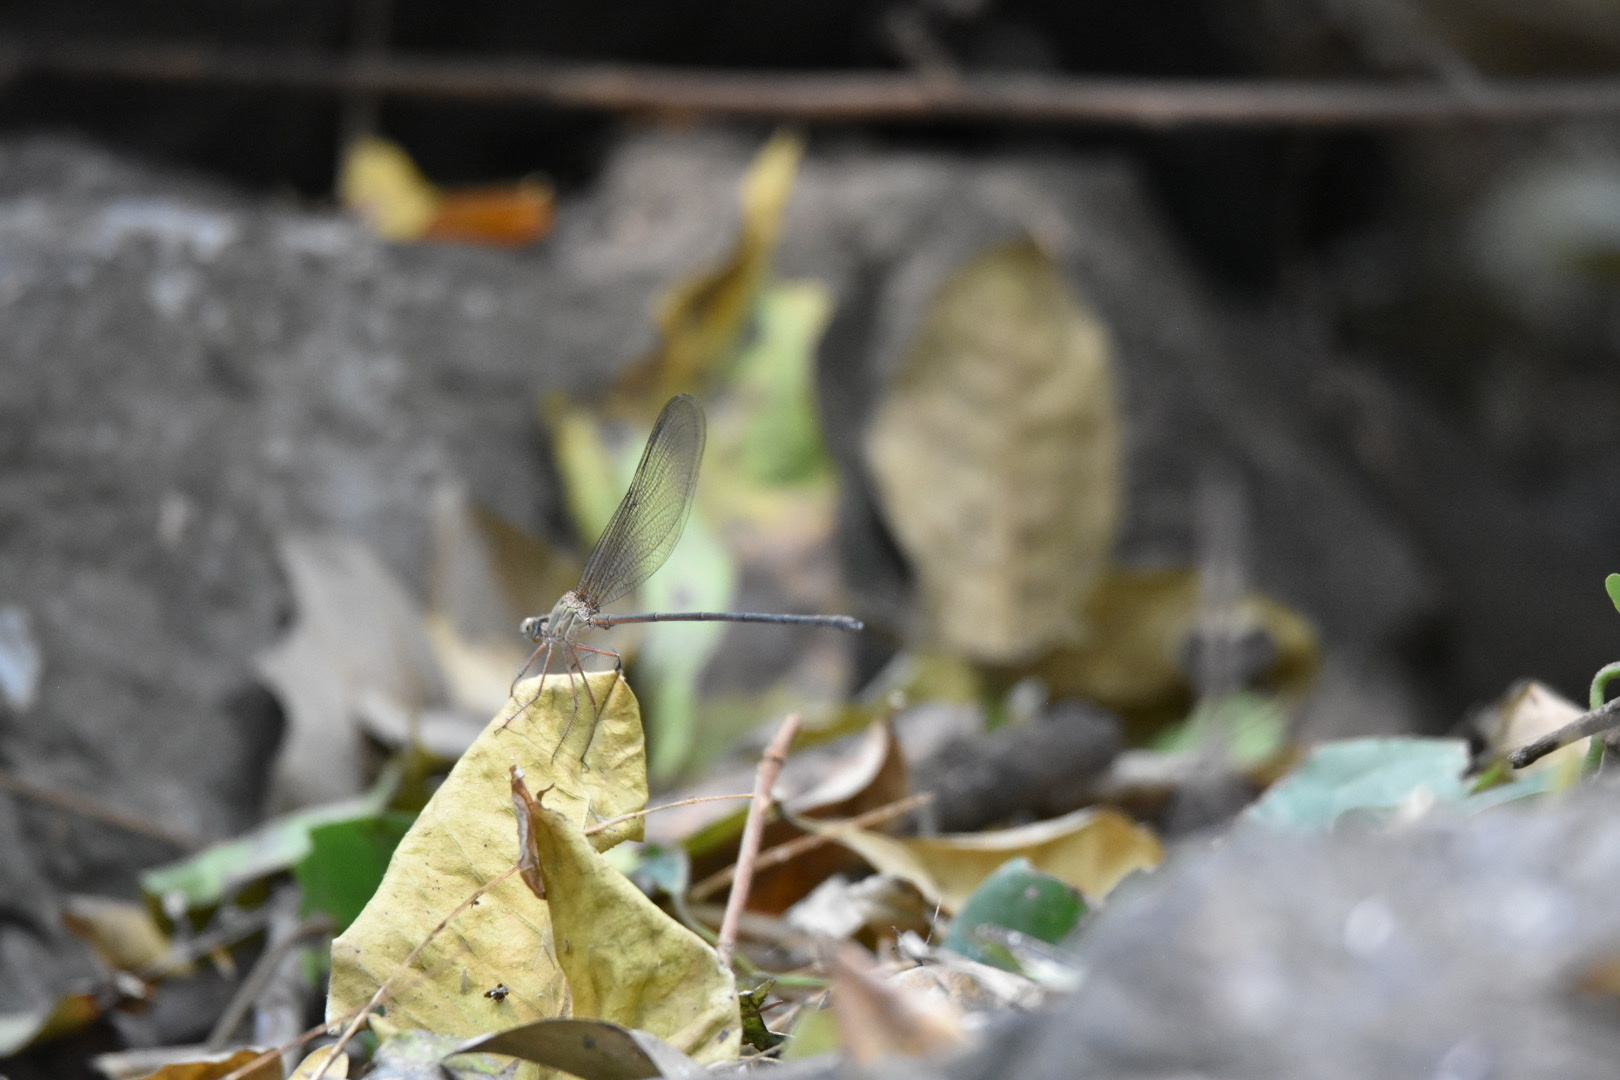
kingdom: Animalia
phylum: Arthropoda
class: Insecta
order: Odonata
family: Calopterygidae
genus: Phaon
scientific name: Phaon iridipennis
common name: Glistening demoiselle
